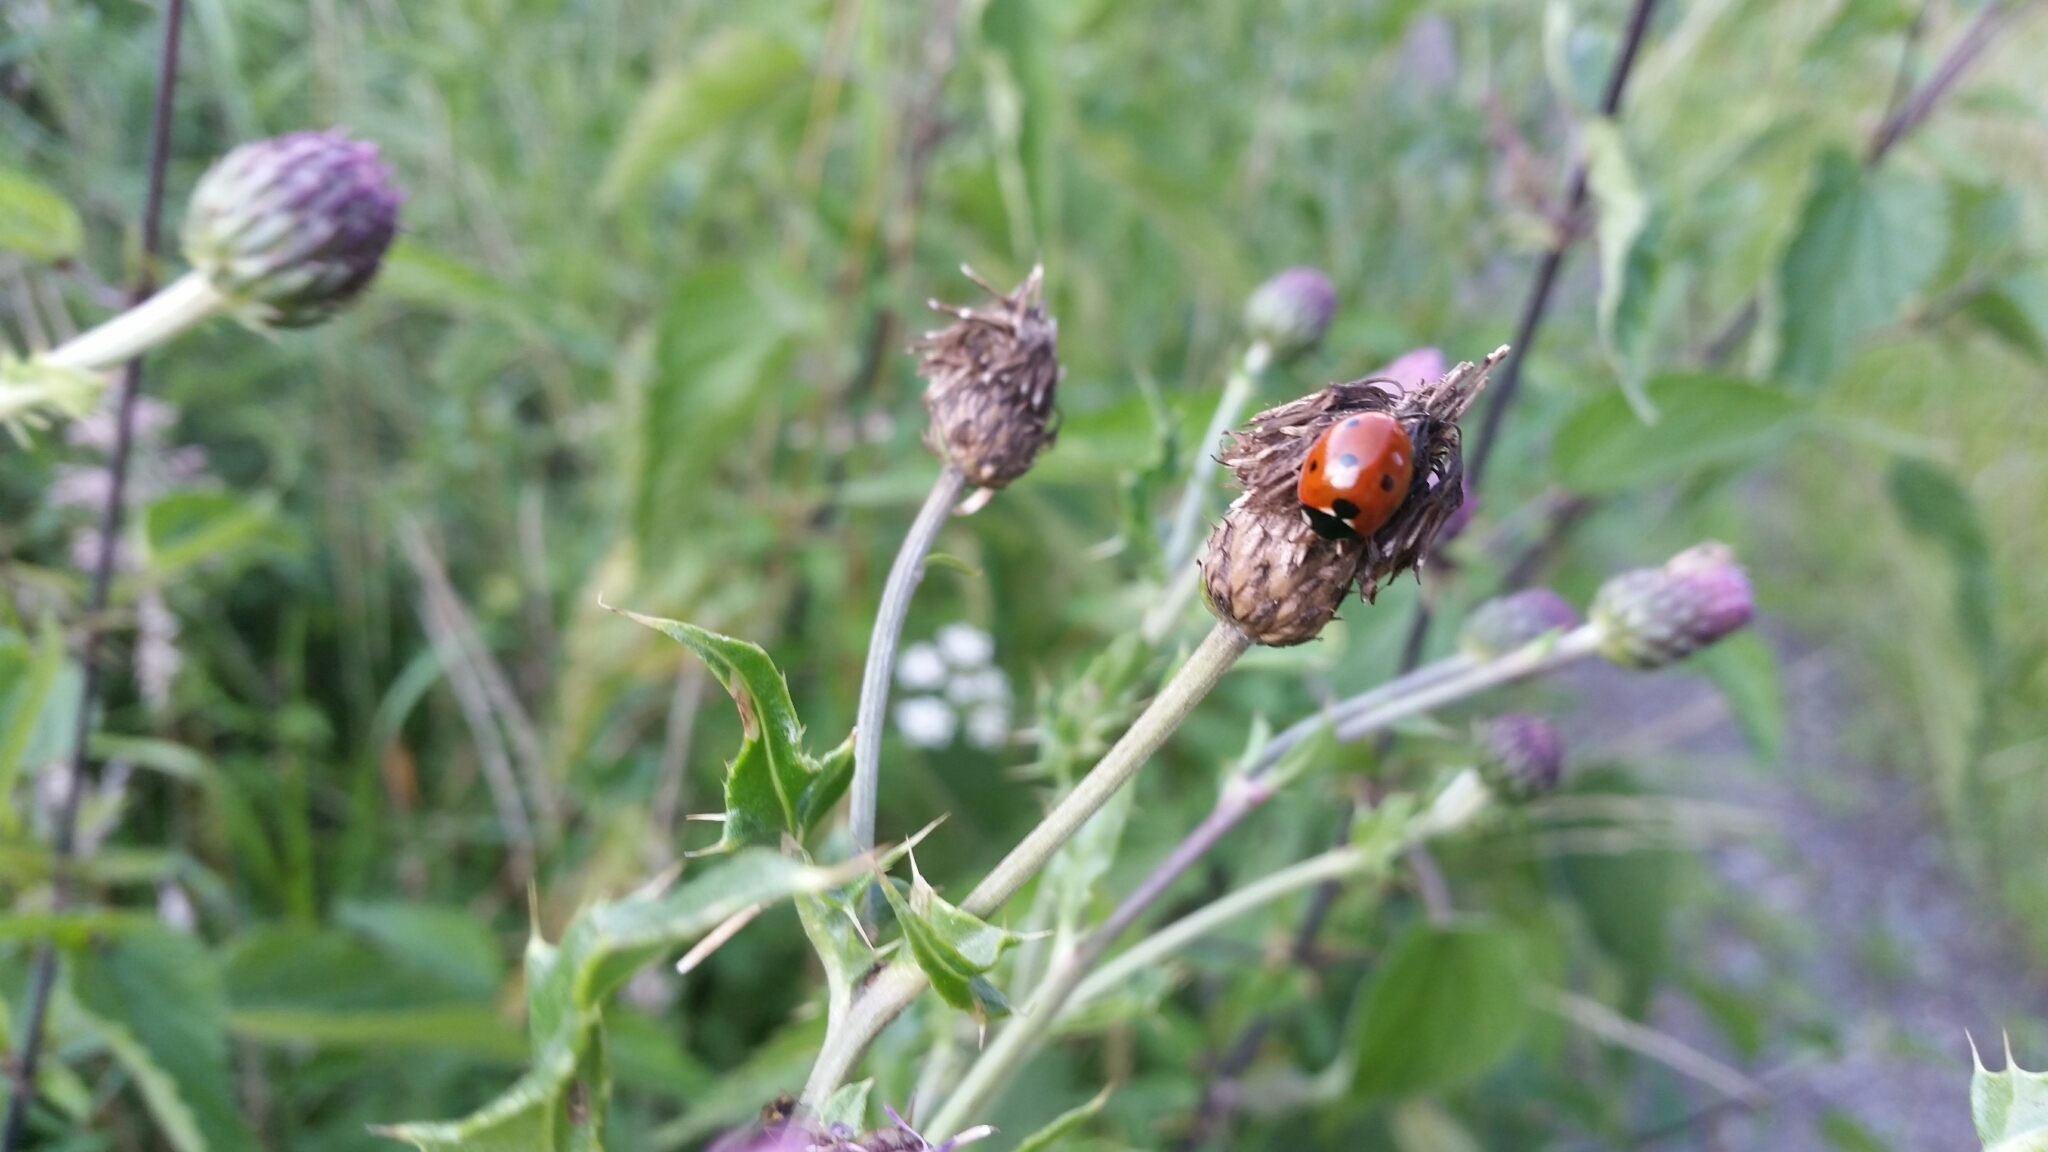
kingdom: Animalia
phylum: Arthropoda
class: Insecta
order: Coleoptera
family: Coccinellidae
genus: Coccinella
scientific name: Coccinella septempunctata
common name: Sevenspotted lady beetle
